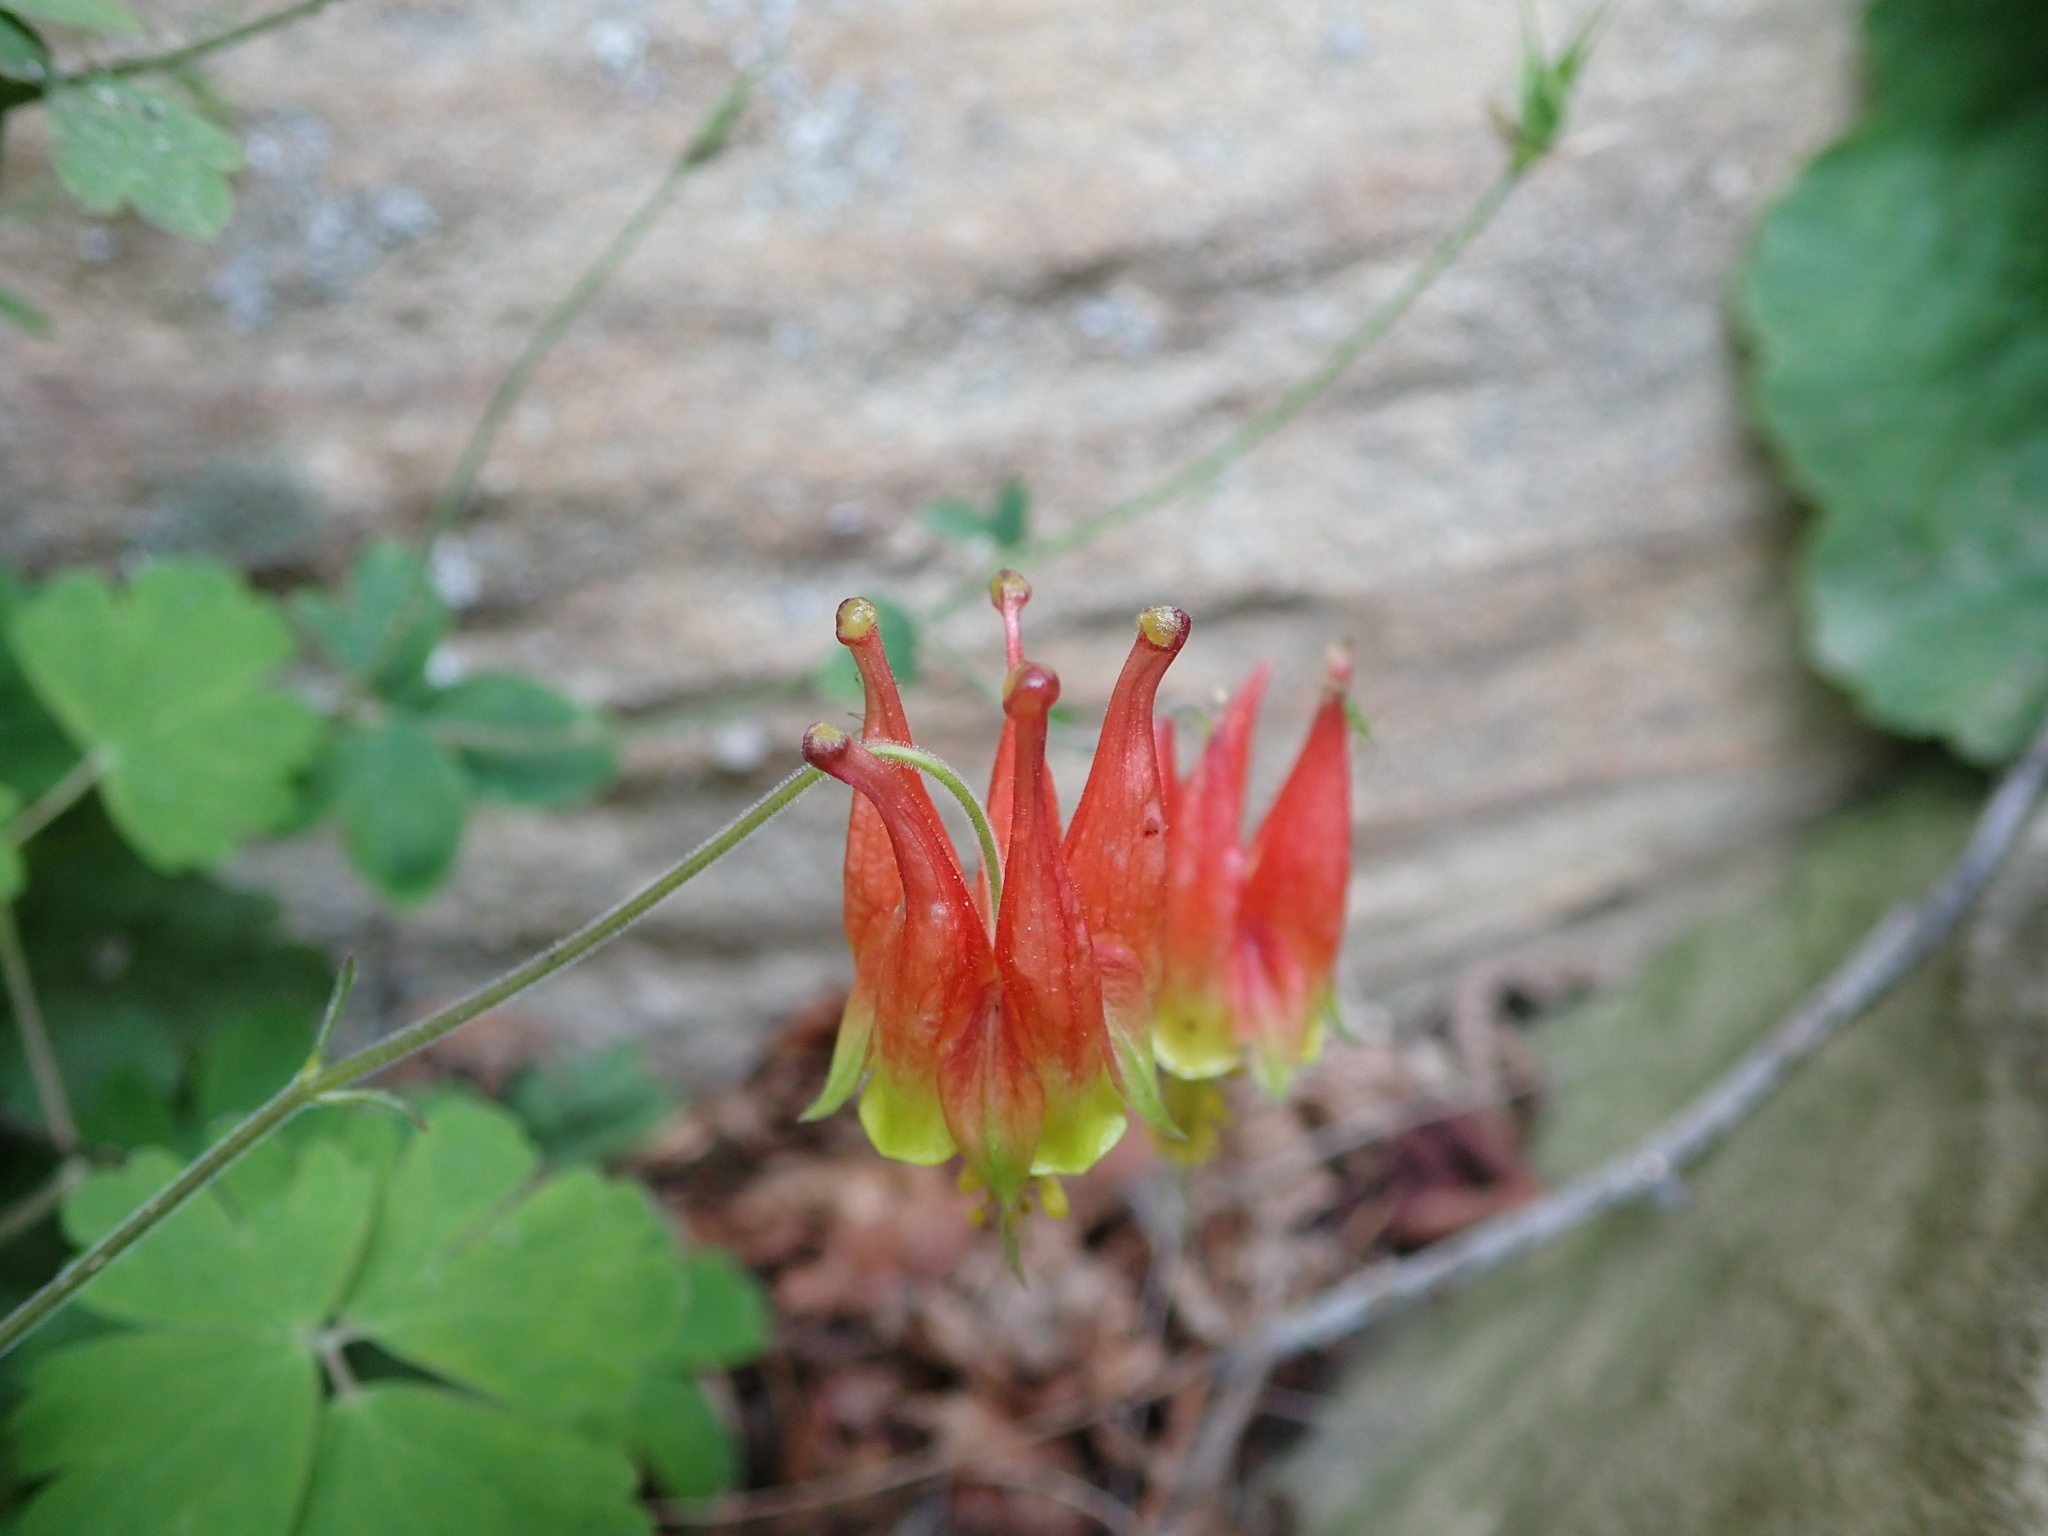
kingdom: Plantae
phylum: Tracheophyta
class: Magnoliopsida
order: Ranunculales
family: Ranunculaceae
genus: Aquilegia
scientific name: Aquilegia canadensis
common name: American columbine
